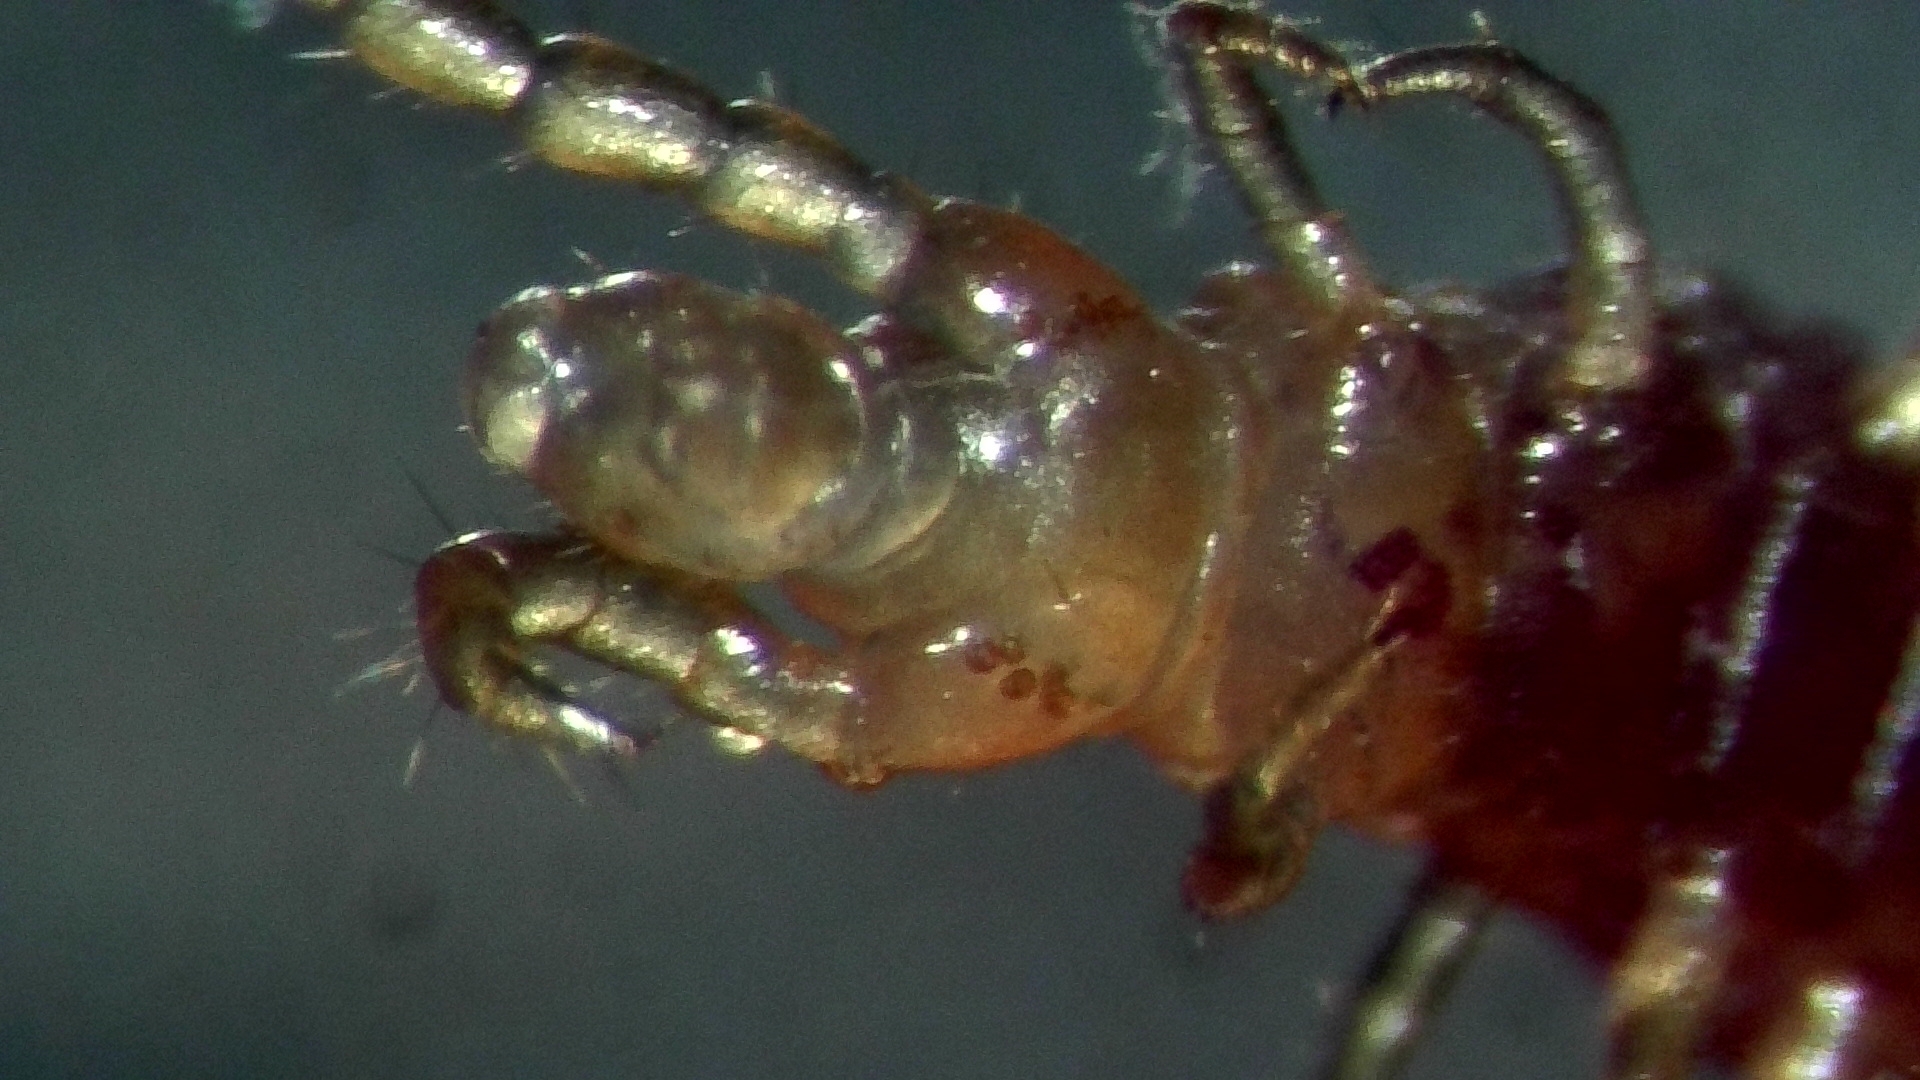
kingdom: Animalia
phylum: Arthropoda
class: Chilopoda
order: Geophilomorpha
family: Geophilidae
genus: Geophilus
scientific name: Geophilus easoni
